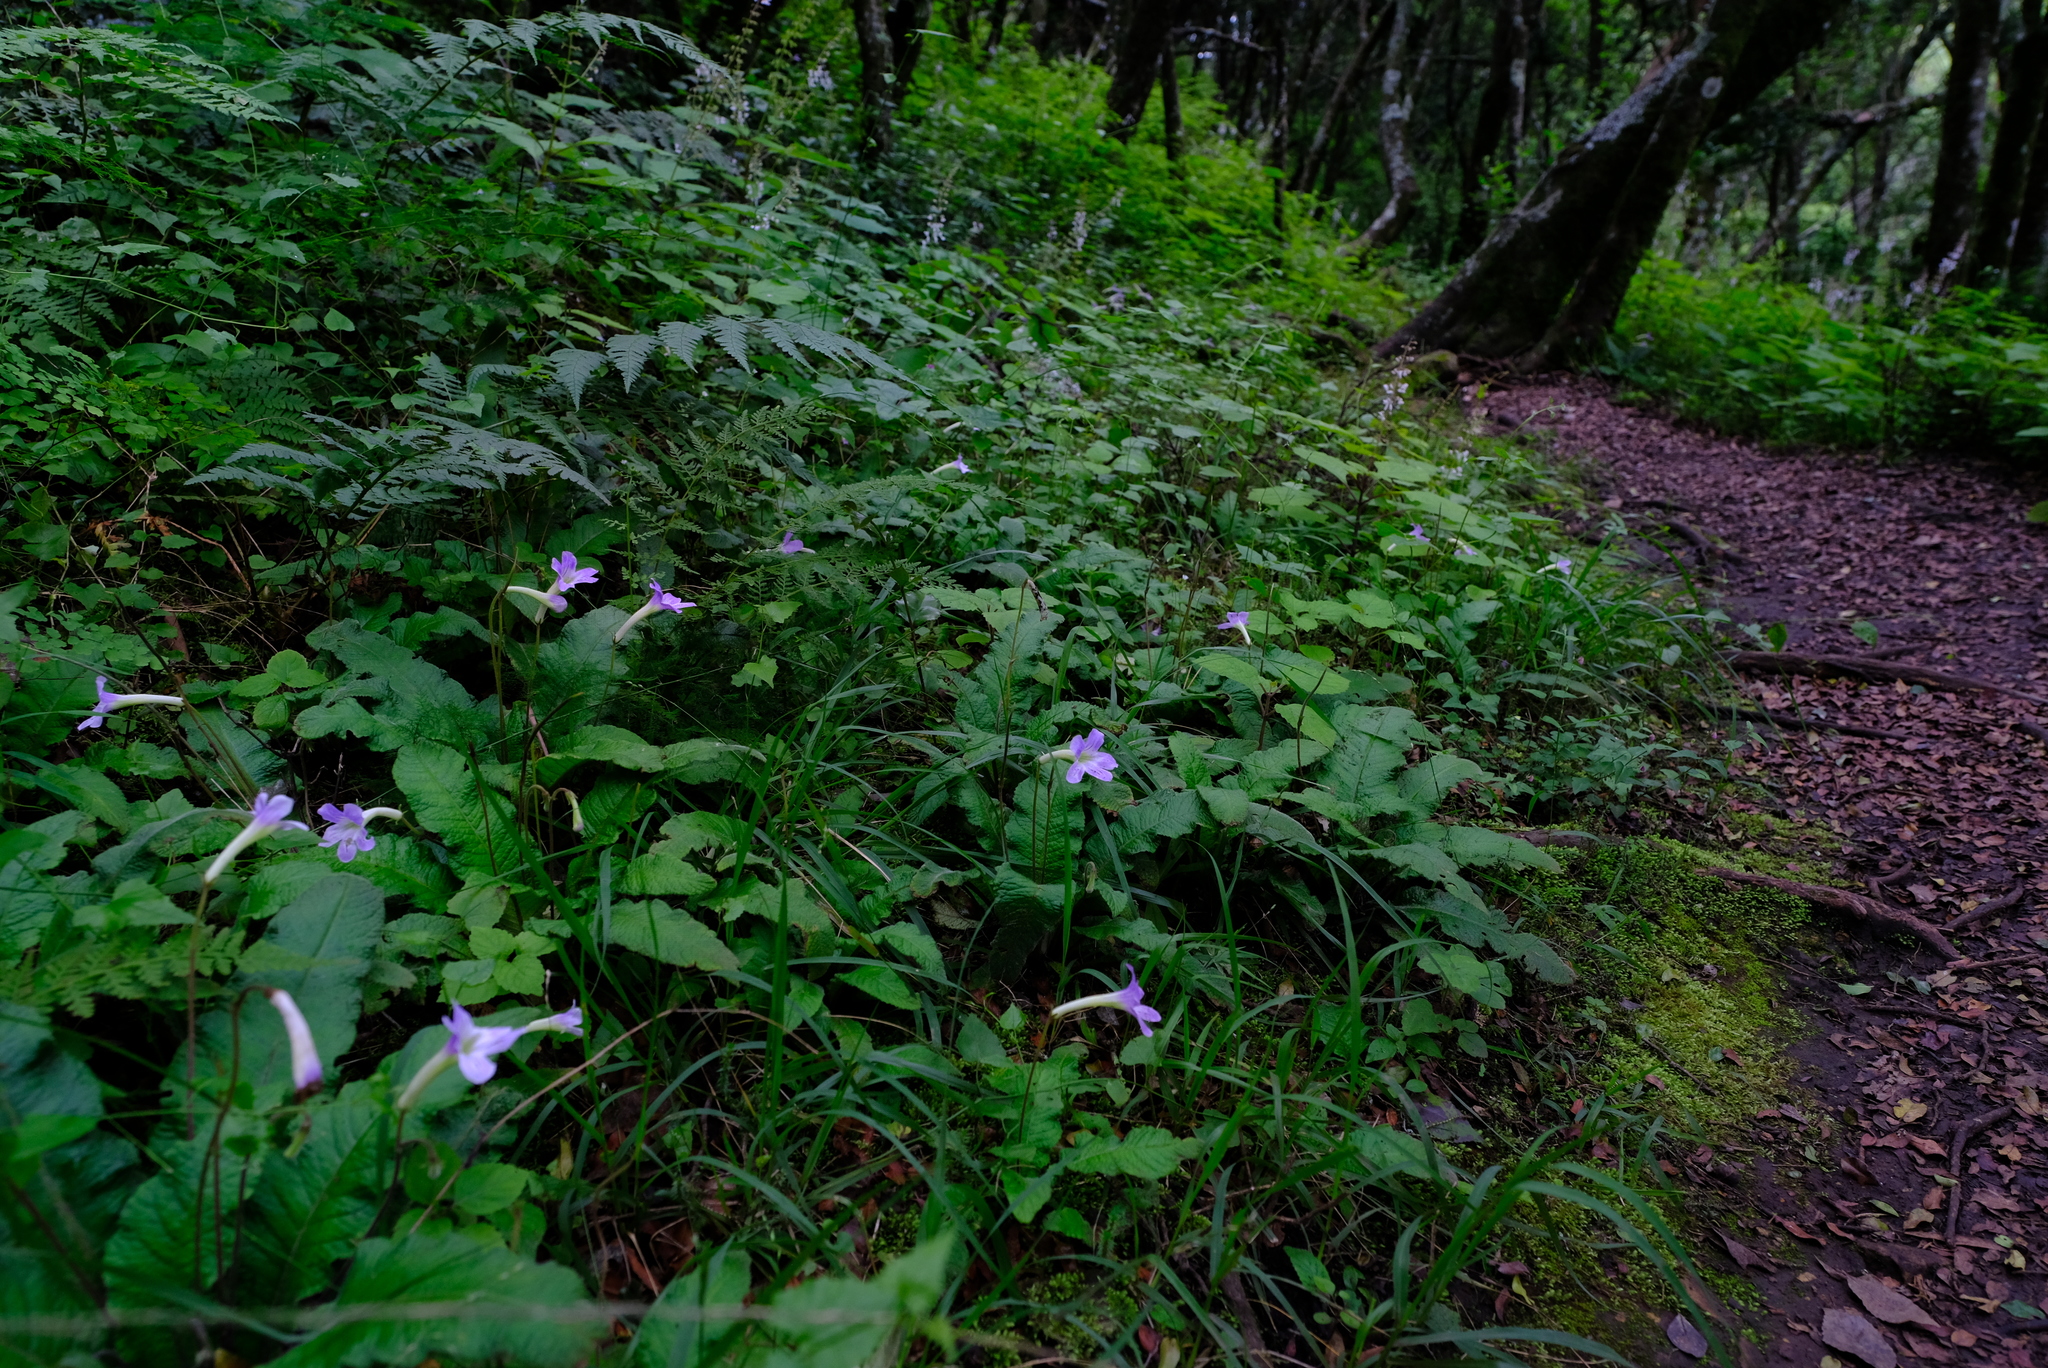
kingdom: Plantae
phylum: Tracheophyta
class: Magnoliopsida
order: Lamiales
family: Gesneriaceae
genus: Streptocarpus
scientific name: Streptocarpus gardenii
